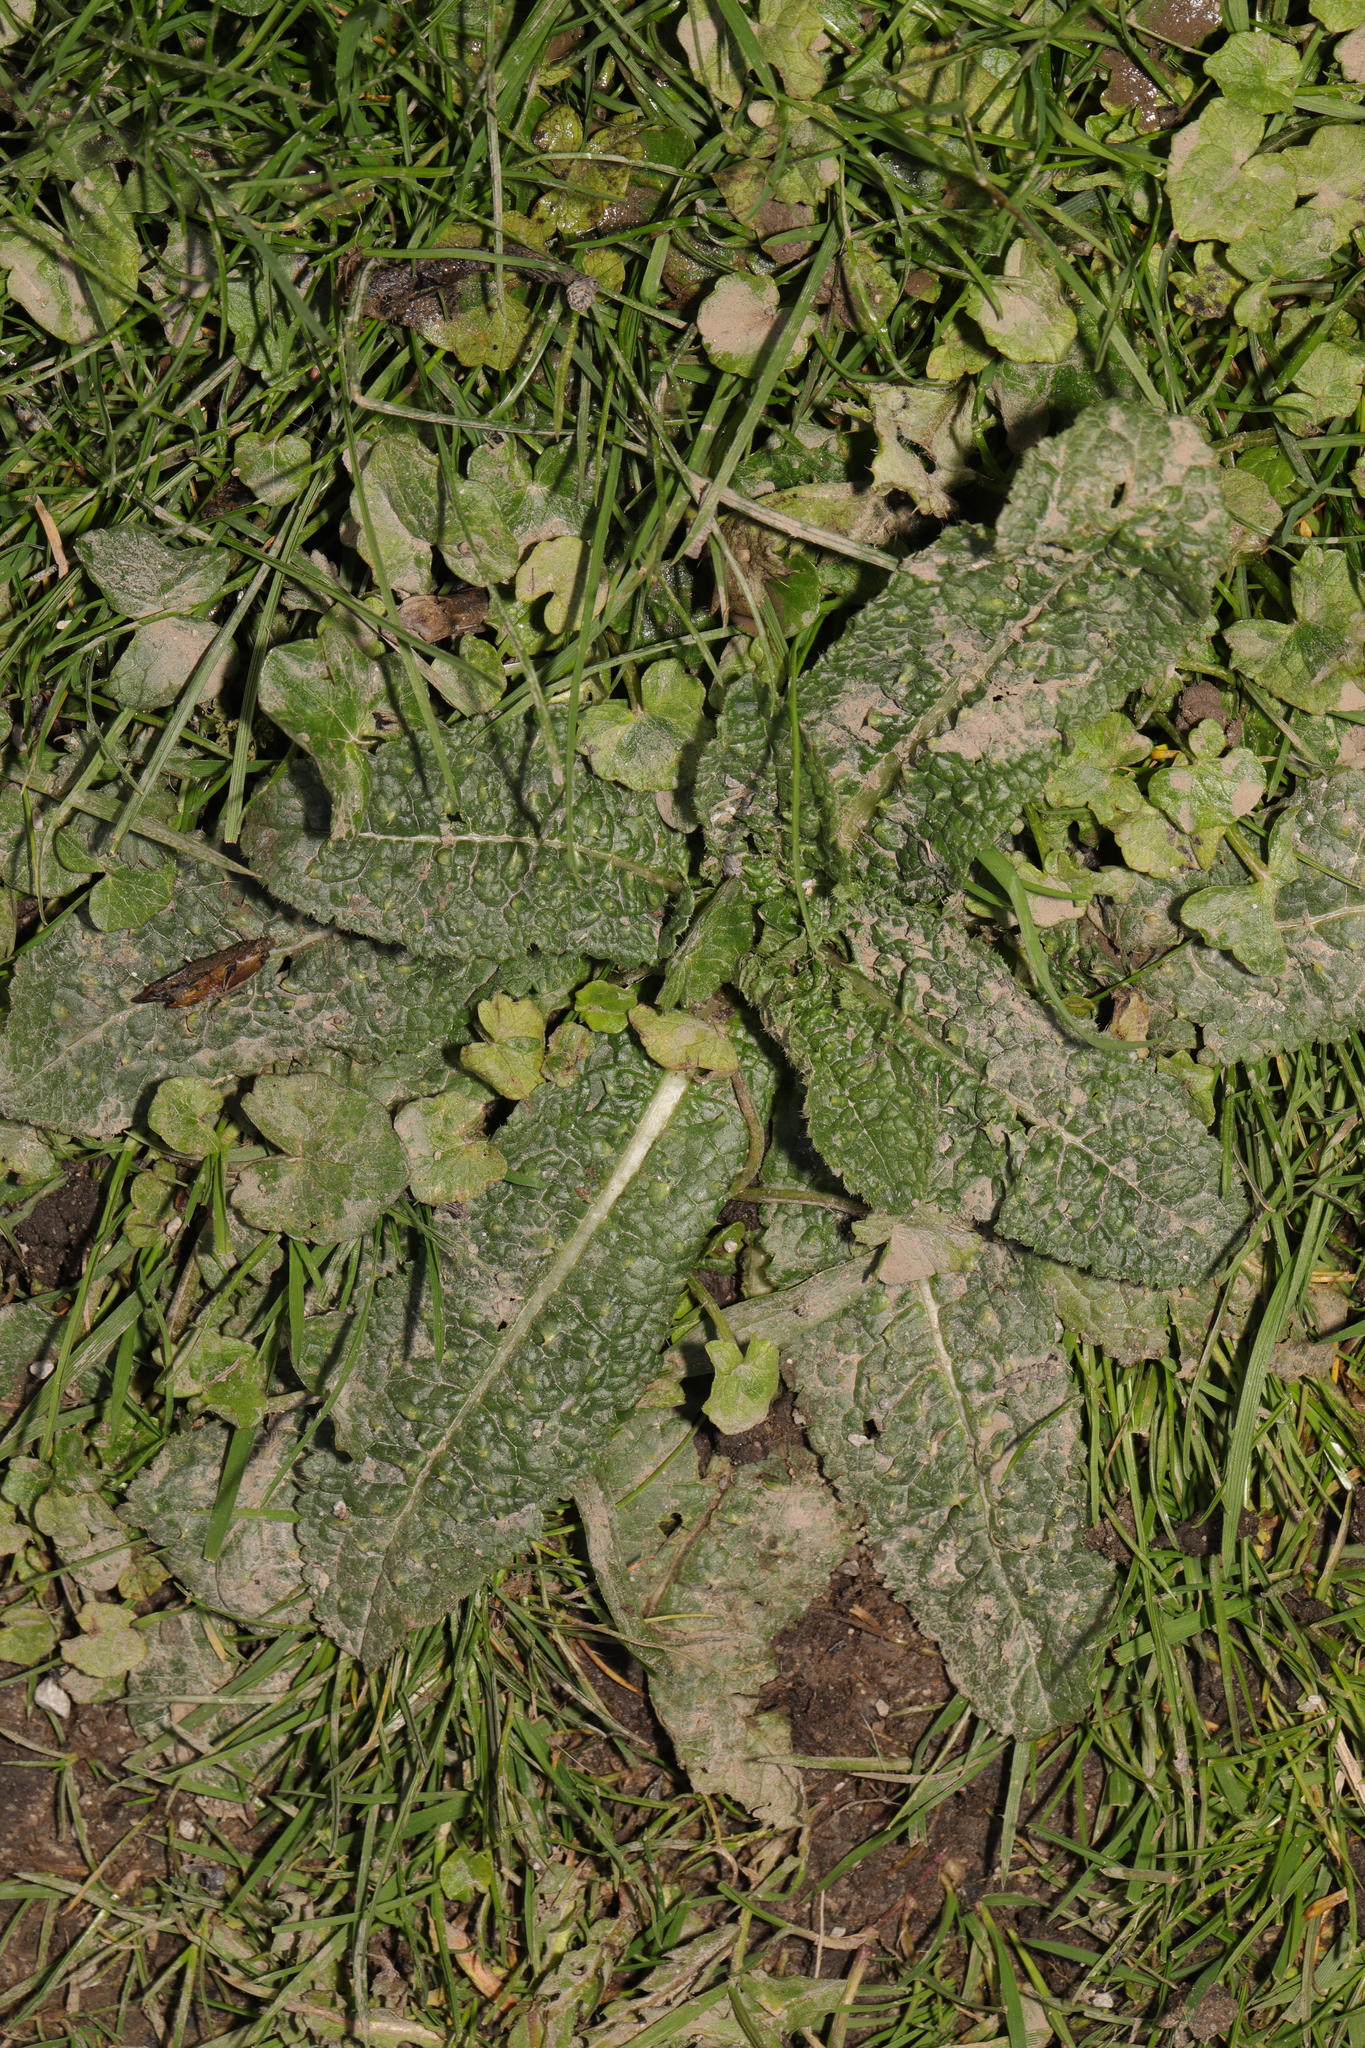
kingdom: Plantae
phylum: Tracheophyta
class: Magnoliopsida
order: Dipsacales
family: Caprifoliaceae
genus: Dipsacus
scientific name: Dipsacus fullonum
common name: Teasel
